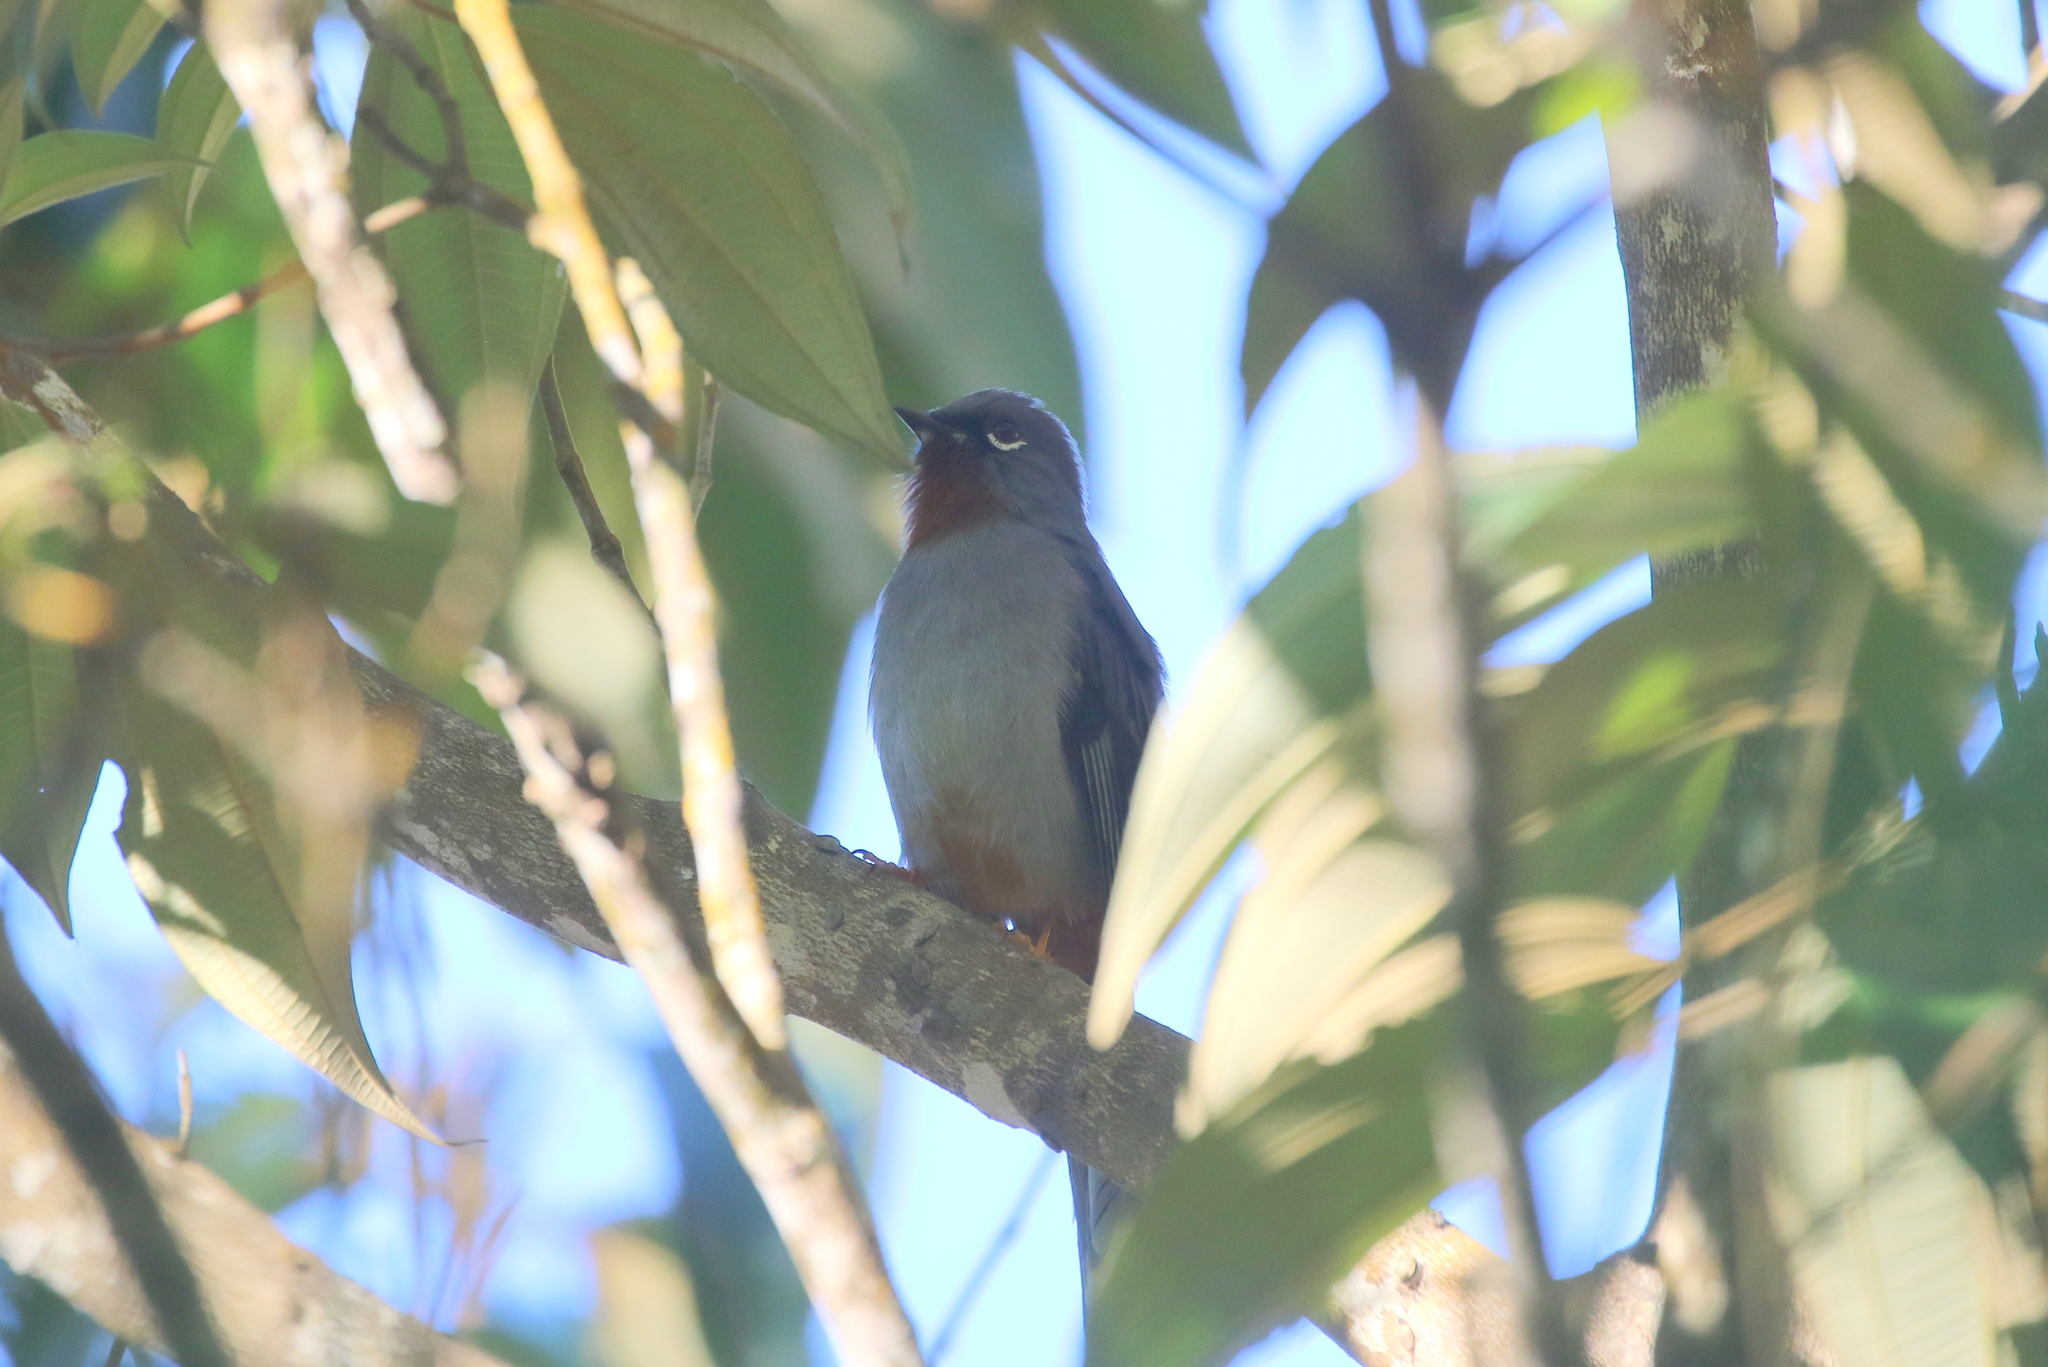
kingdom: Animalia
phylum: Chordata
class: Aves
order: Passeriformes
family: Turdidae
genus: Myadestes
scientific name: Myadestes genibarbis
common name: Rufous-throated solitaire
